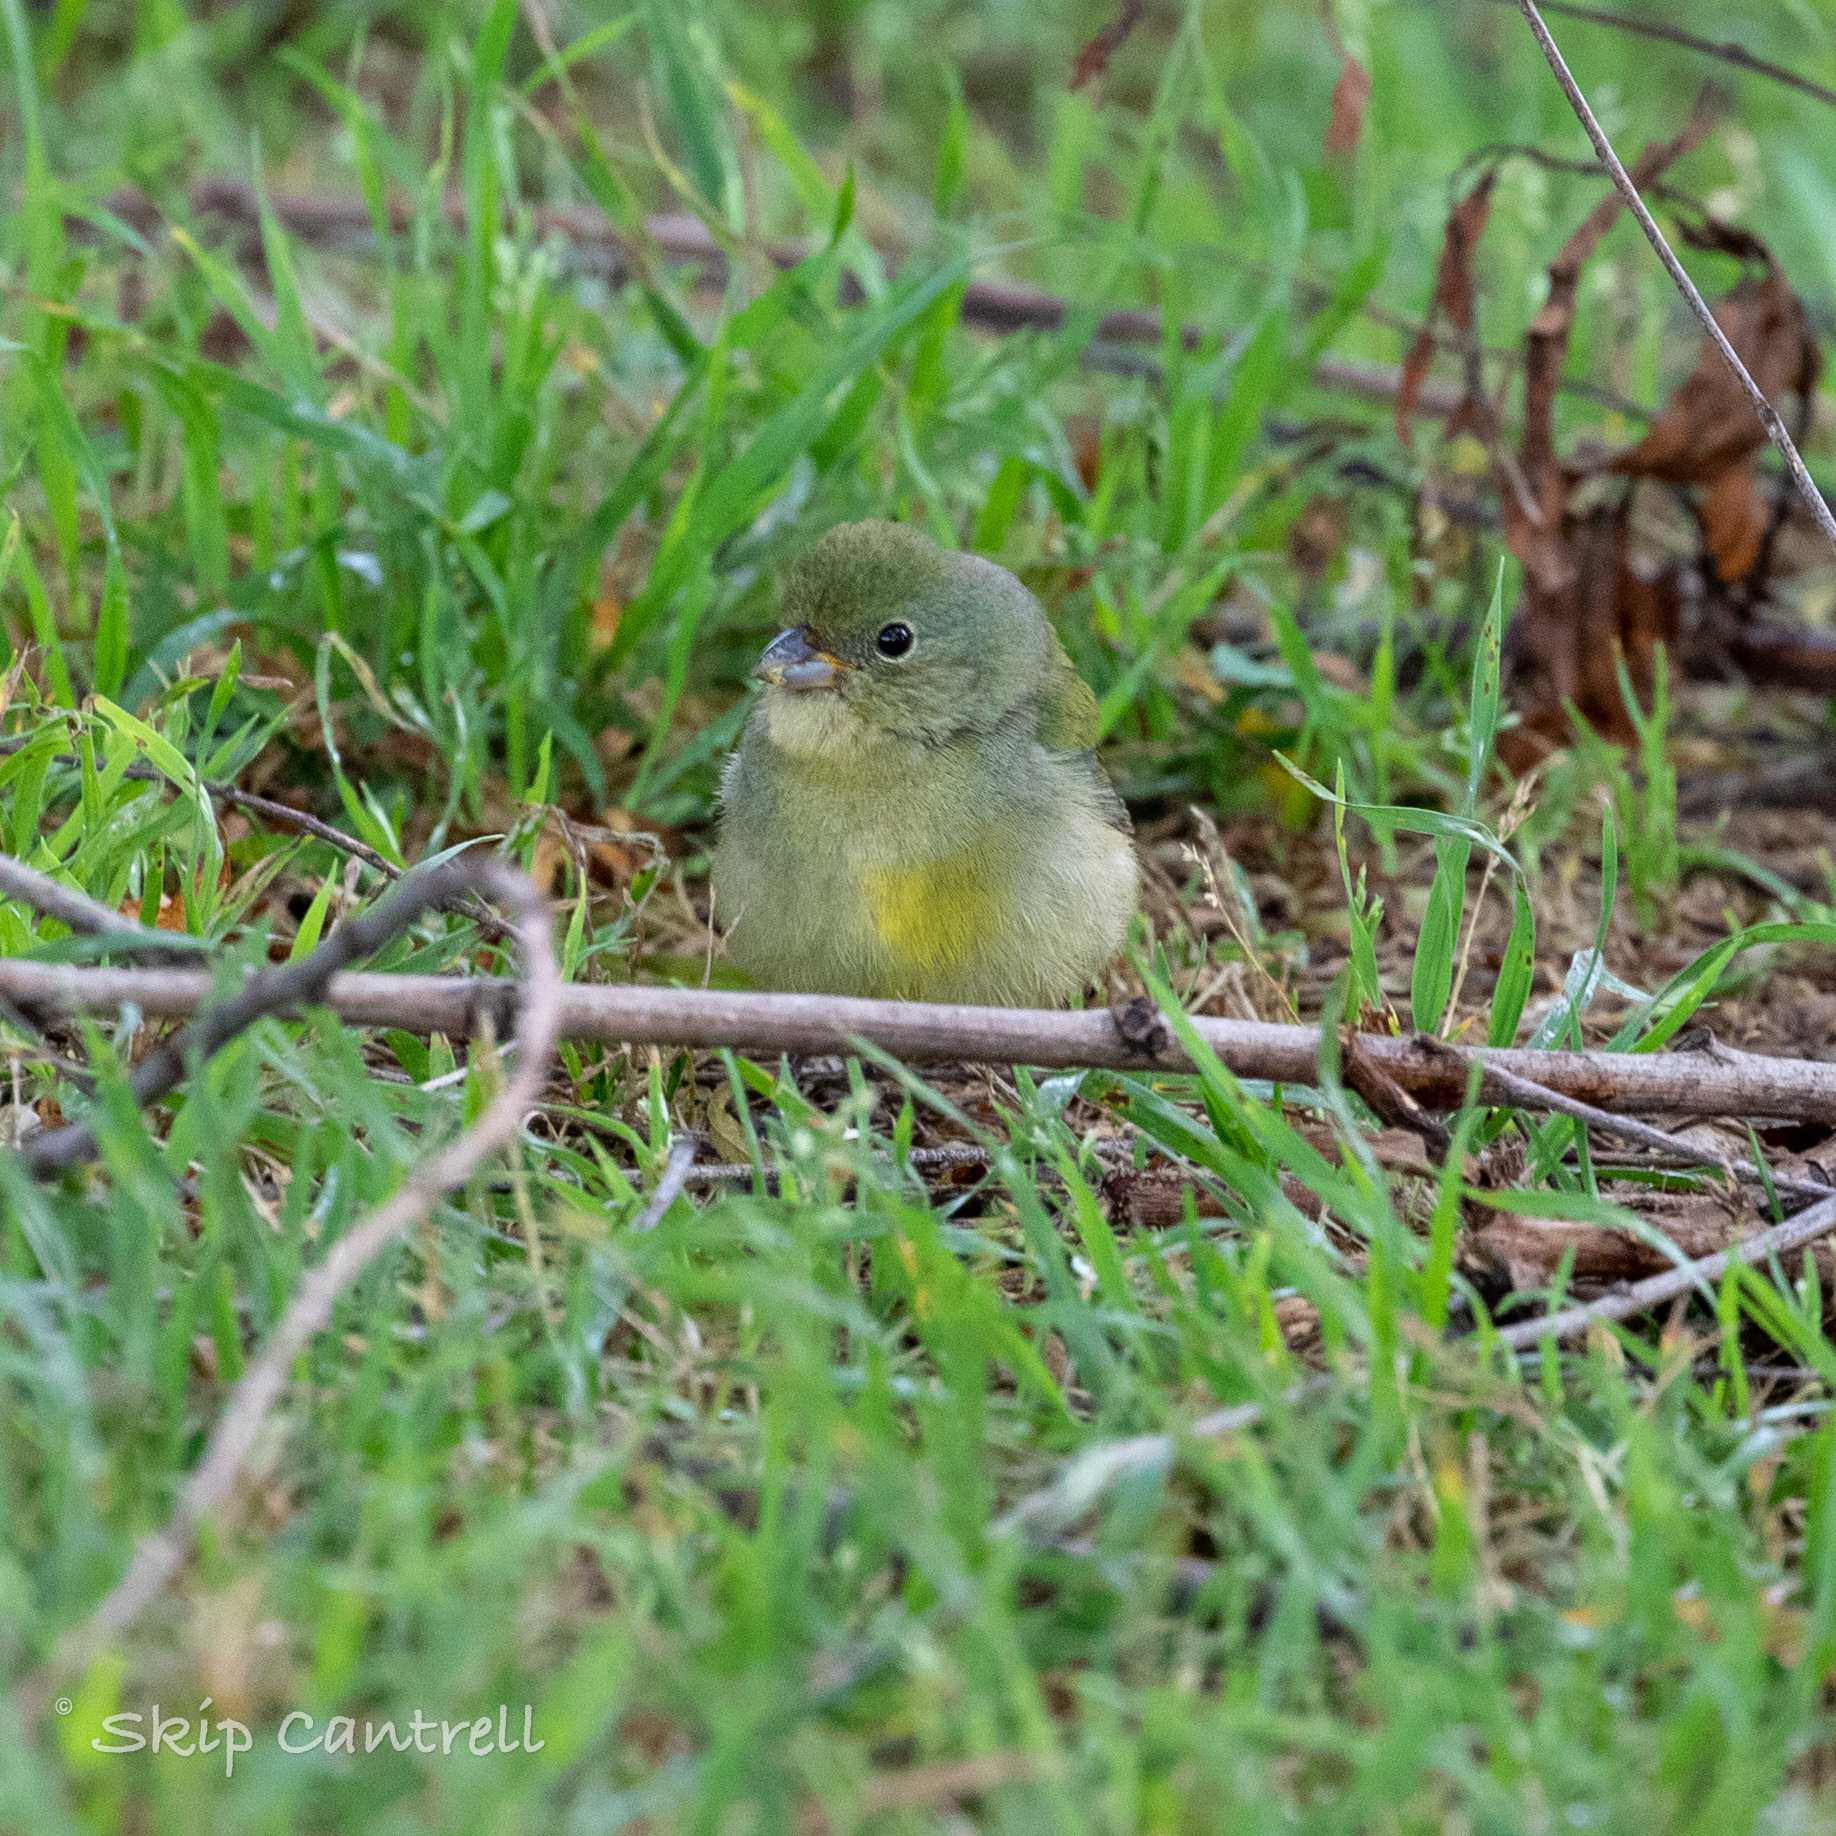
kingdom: Animalia
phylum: Chordata
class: Aves
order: Passeriformes
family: Cardinalidae
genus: Passerina
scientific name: Passerina ciris
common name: Painted bunting
